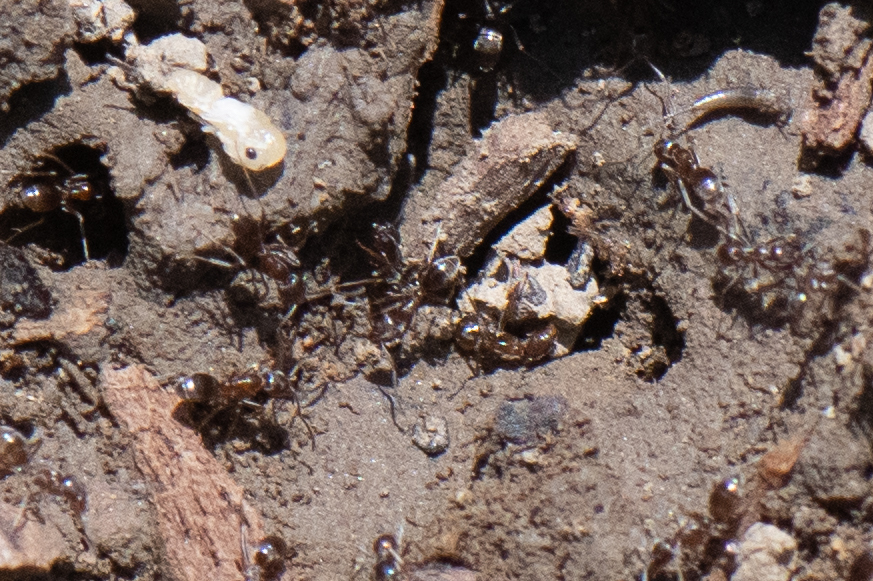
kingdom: Animalia
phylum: Arthropoda
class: Insecta
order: Hymenoptera
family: Formicidae
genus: Linepithema
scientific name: Linepithema humile
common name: Argentine ant
